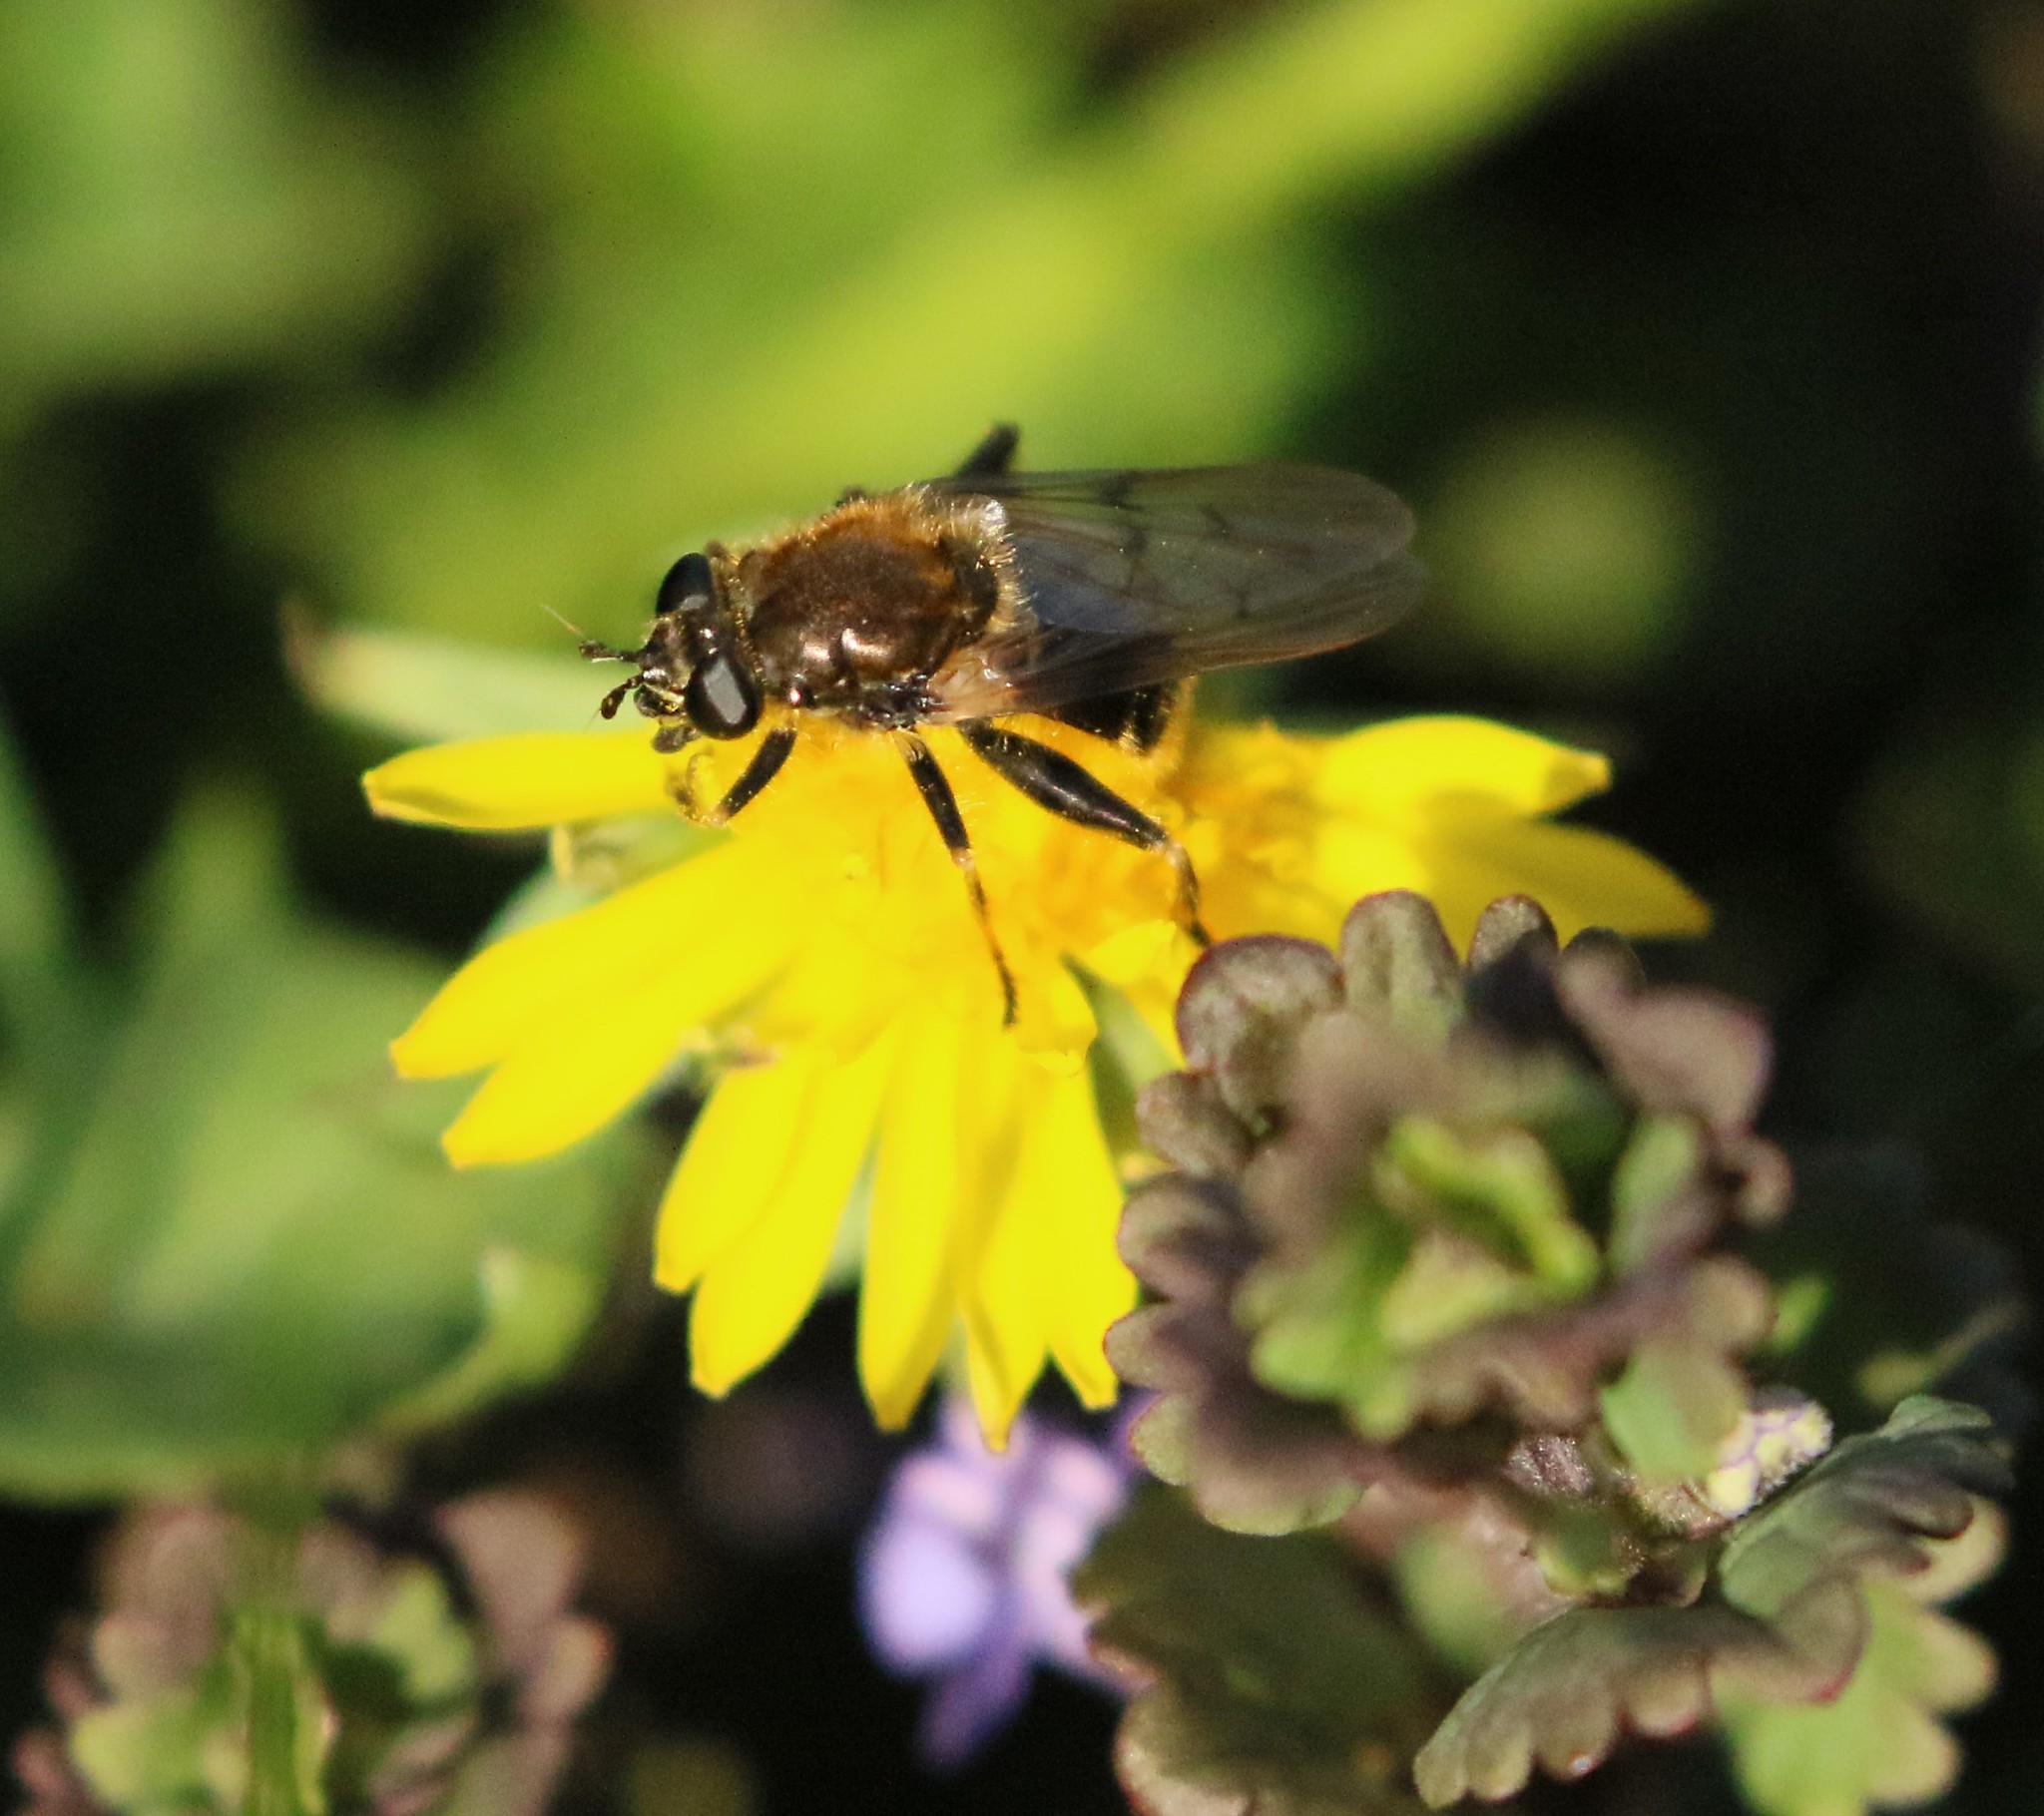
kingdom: Animalia
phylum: Arthropoda
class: Insecta
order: Diptera
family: Syrphidae
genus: Brachypalpus
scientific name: Brachypalpus oarus
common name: Eastern catkin fly
